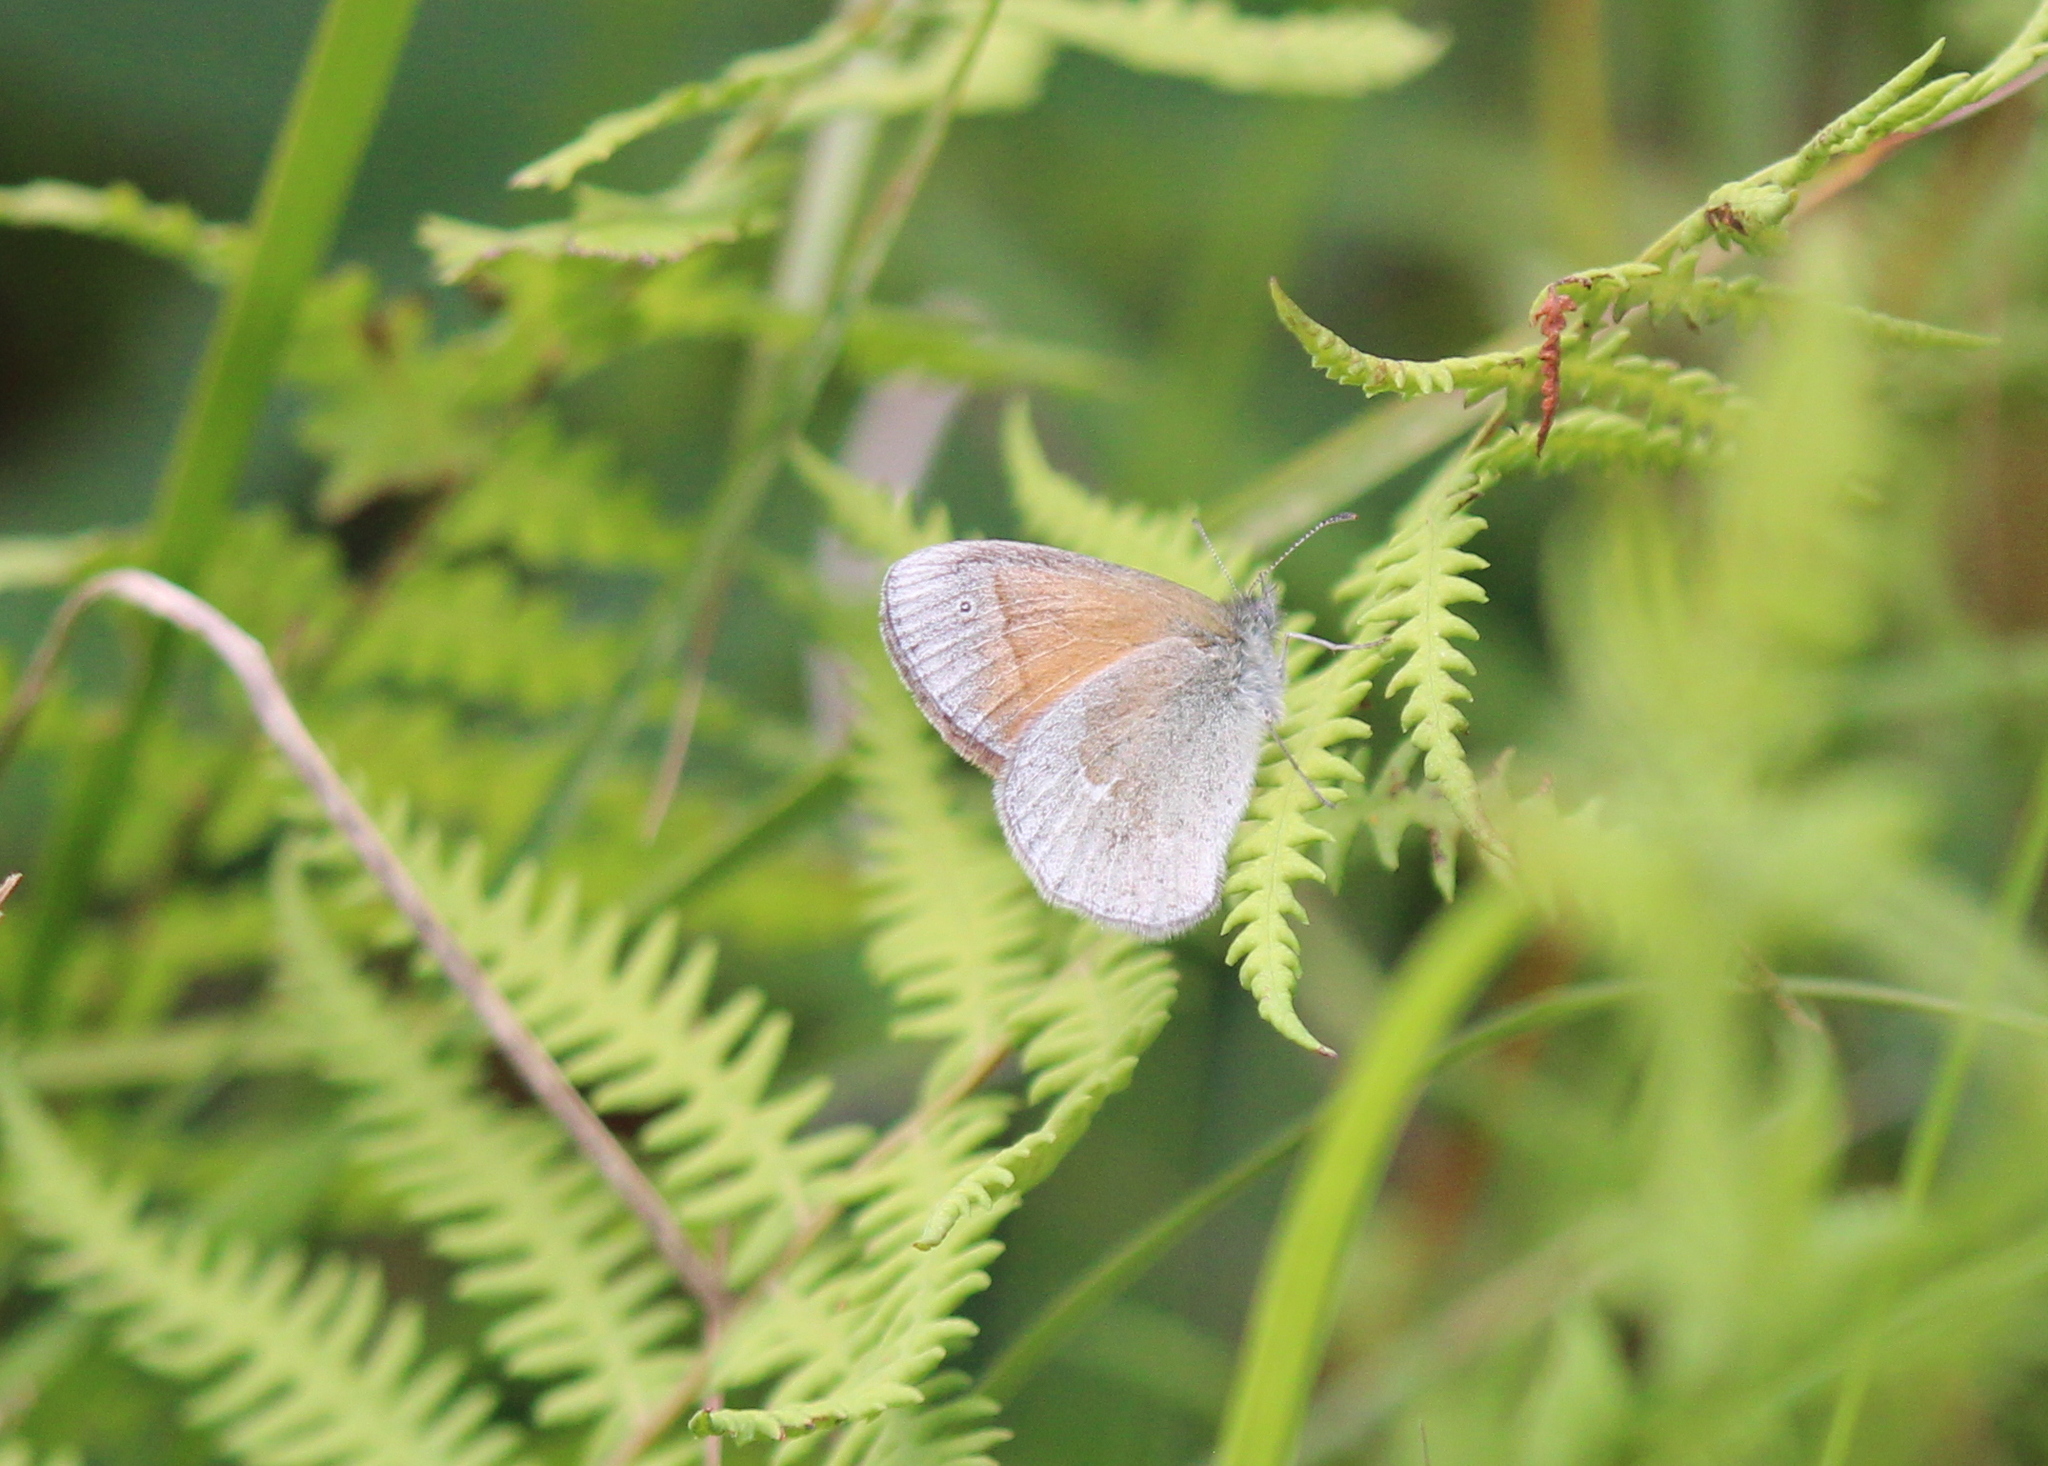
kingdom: Animalia
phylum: Arthropoda
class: Insecta
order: Lepidoptera
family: Nymphalidae
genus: Coenonympha
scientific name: Coenonympha california
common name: Common ringlet
